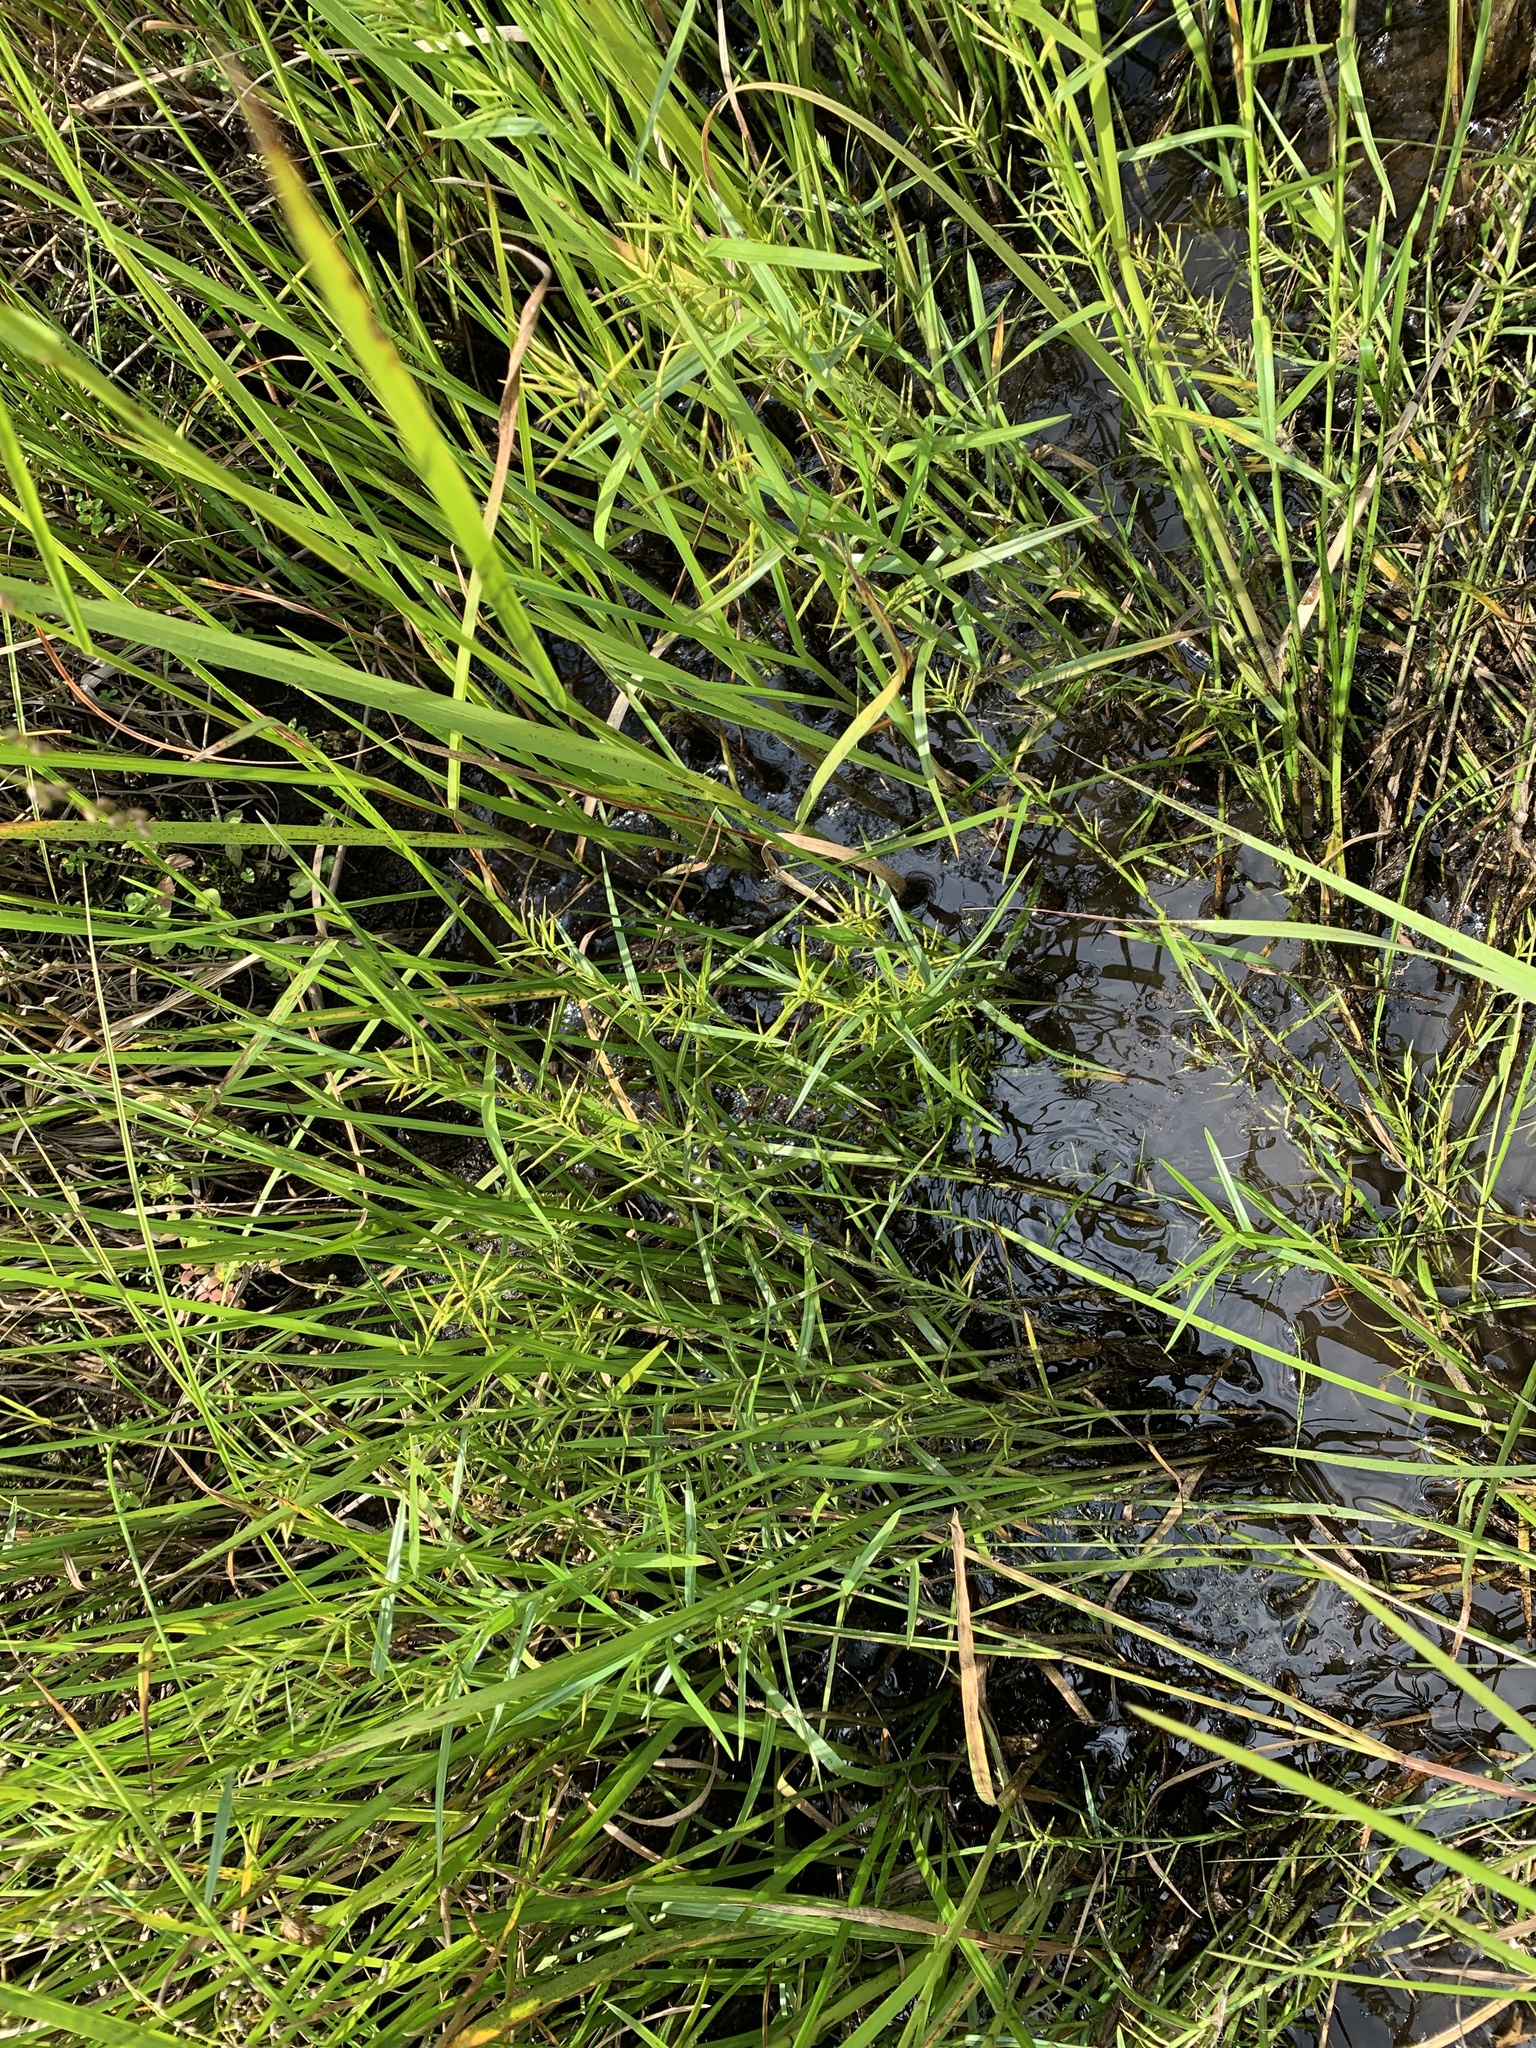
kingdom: Plantae
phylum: Tracheophyta
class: Liliopsida
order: Poales
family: Cyperaceae
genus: Dulichium
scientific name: Dulichium arundinaceum
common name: Three-way sedge
